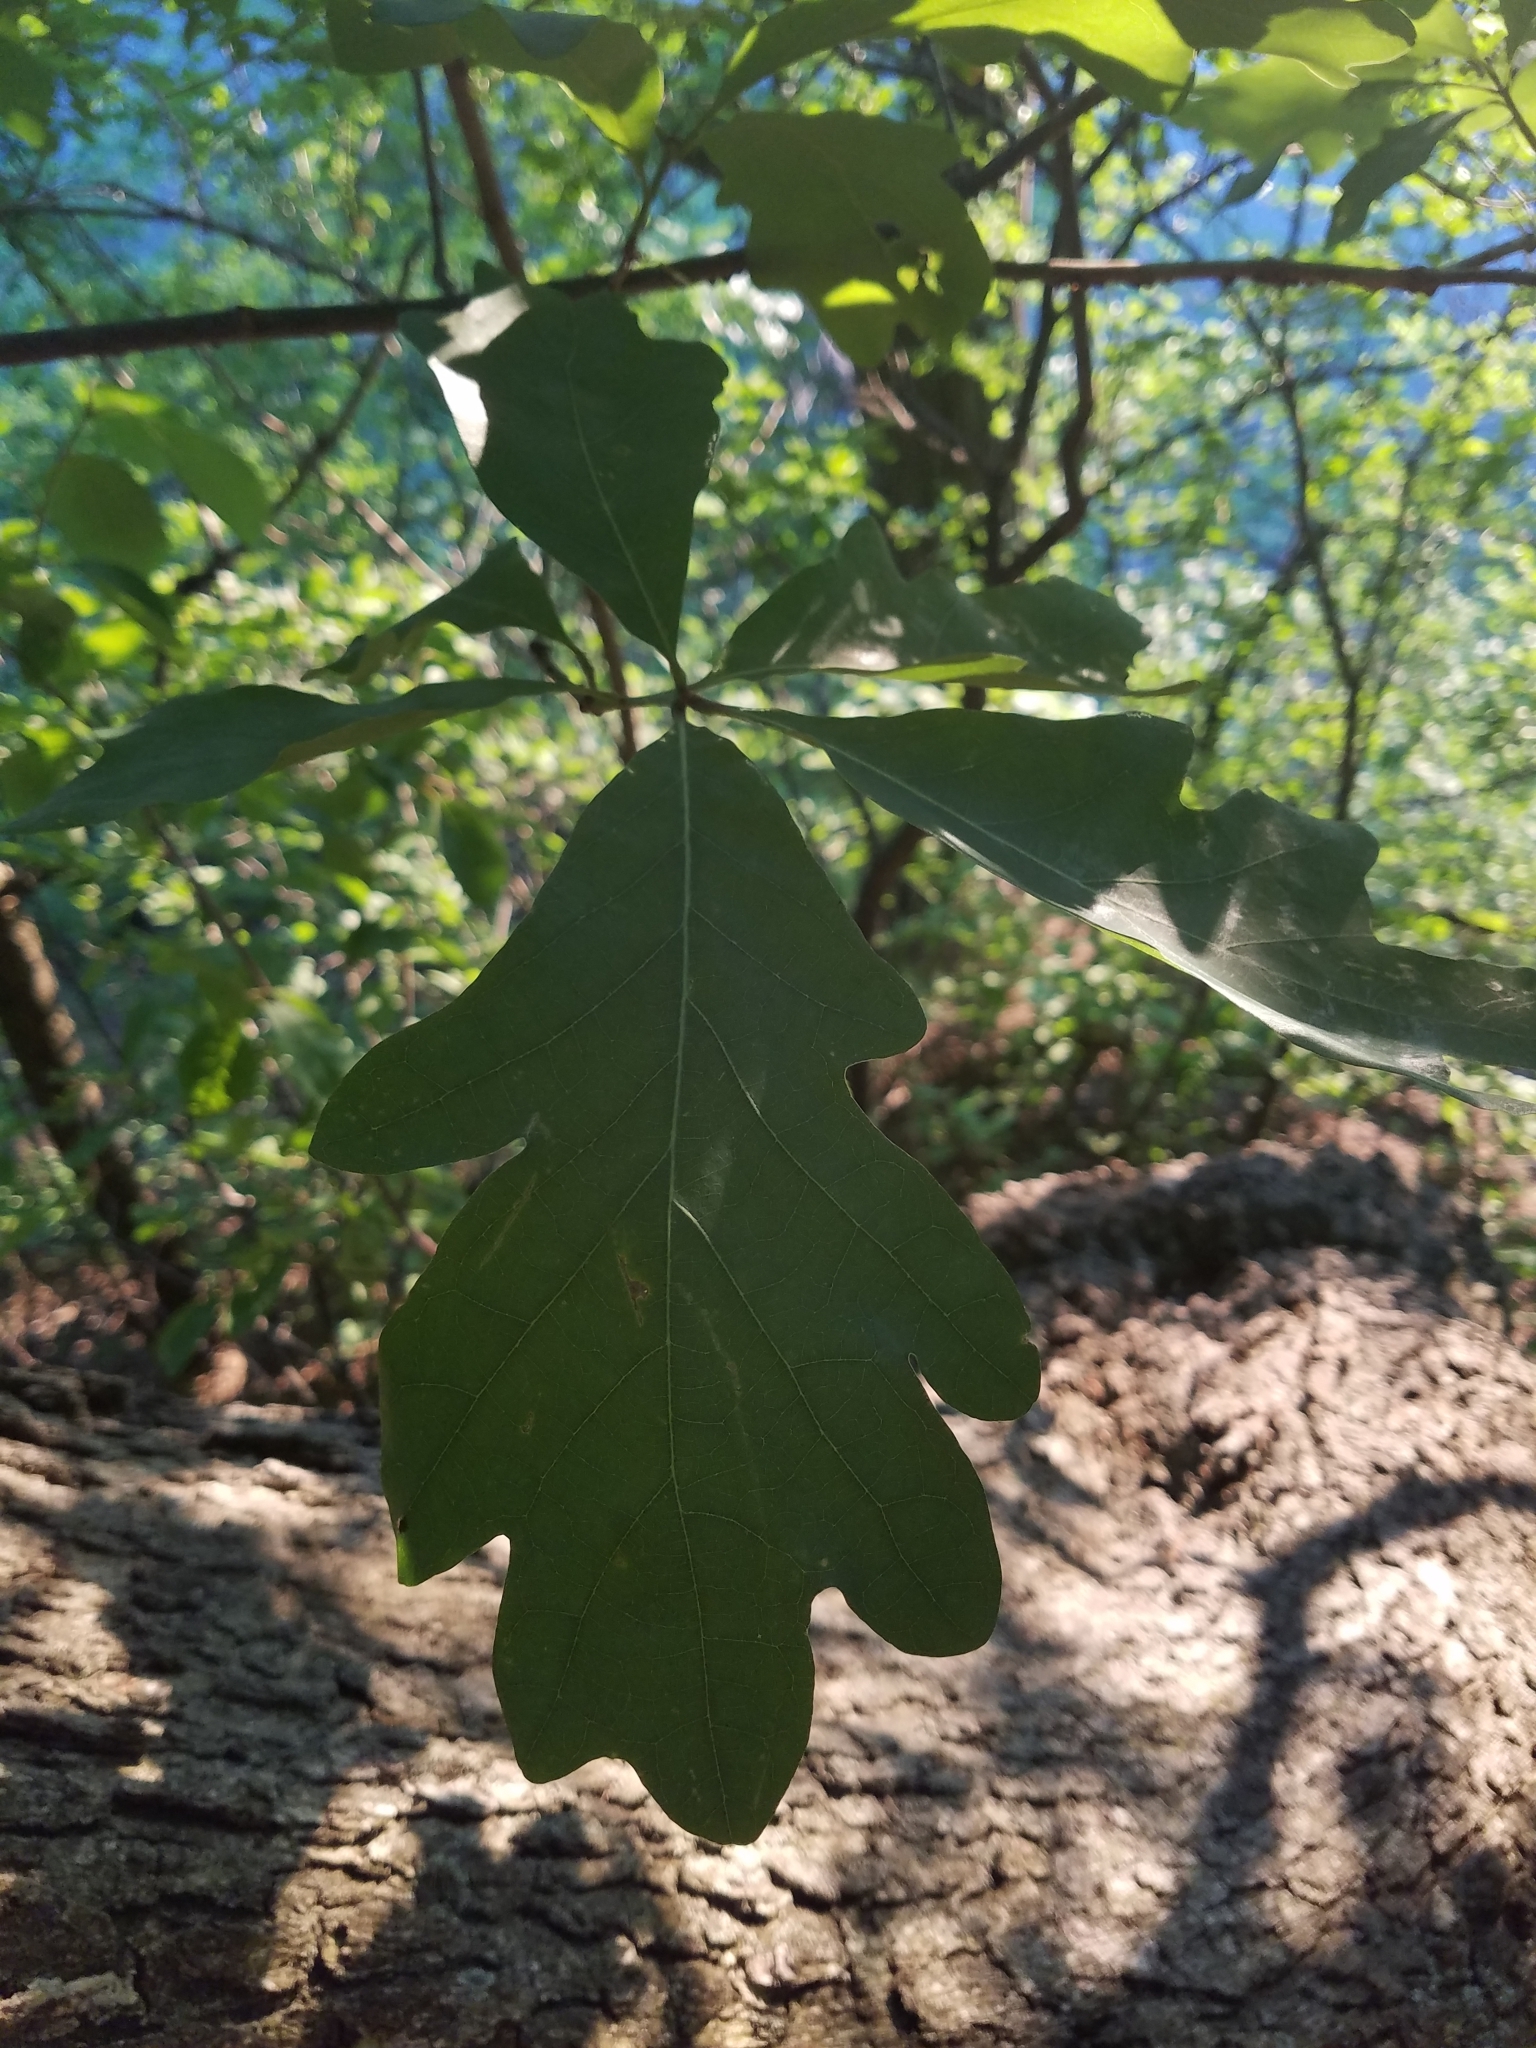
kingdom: Plantae
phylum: Tracheophyta
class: Magnoliopsida
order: Fagales
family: Fagaceae
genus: Quercus
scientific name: Quercus alba
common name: White oak
